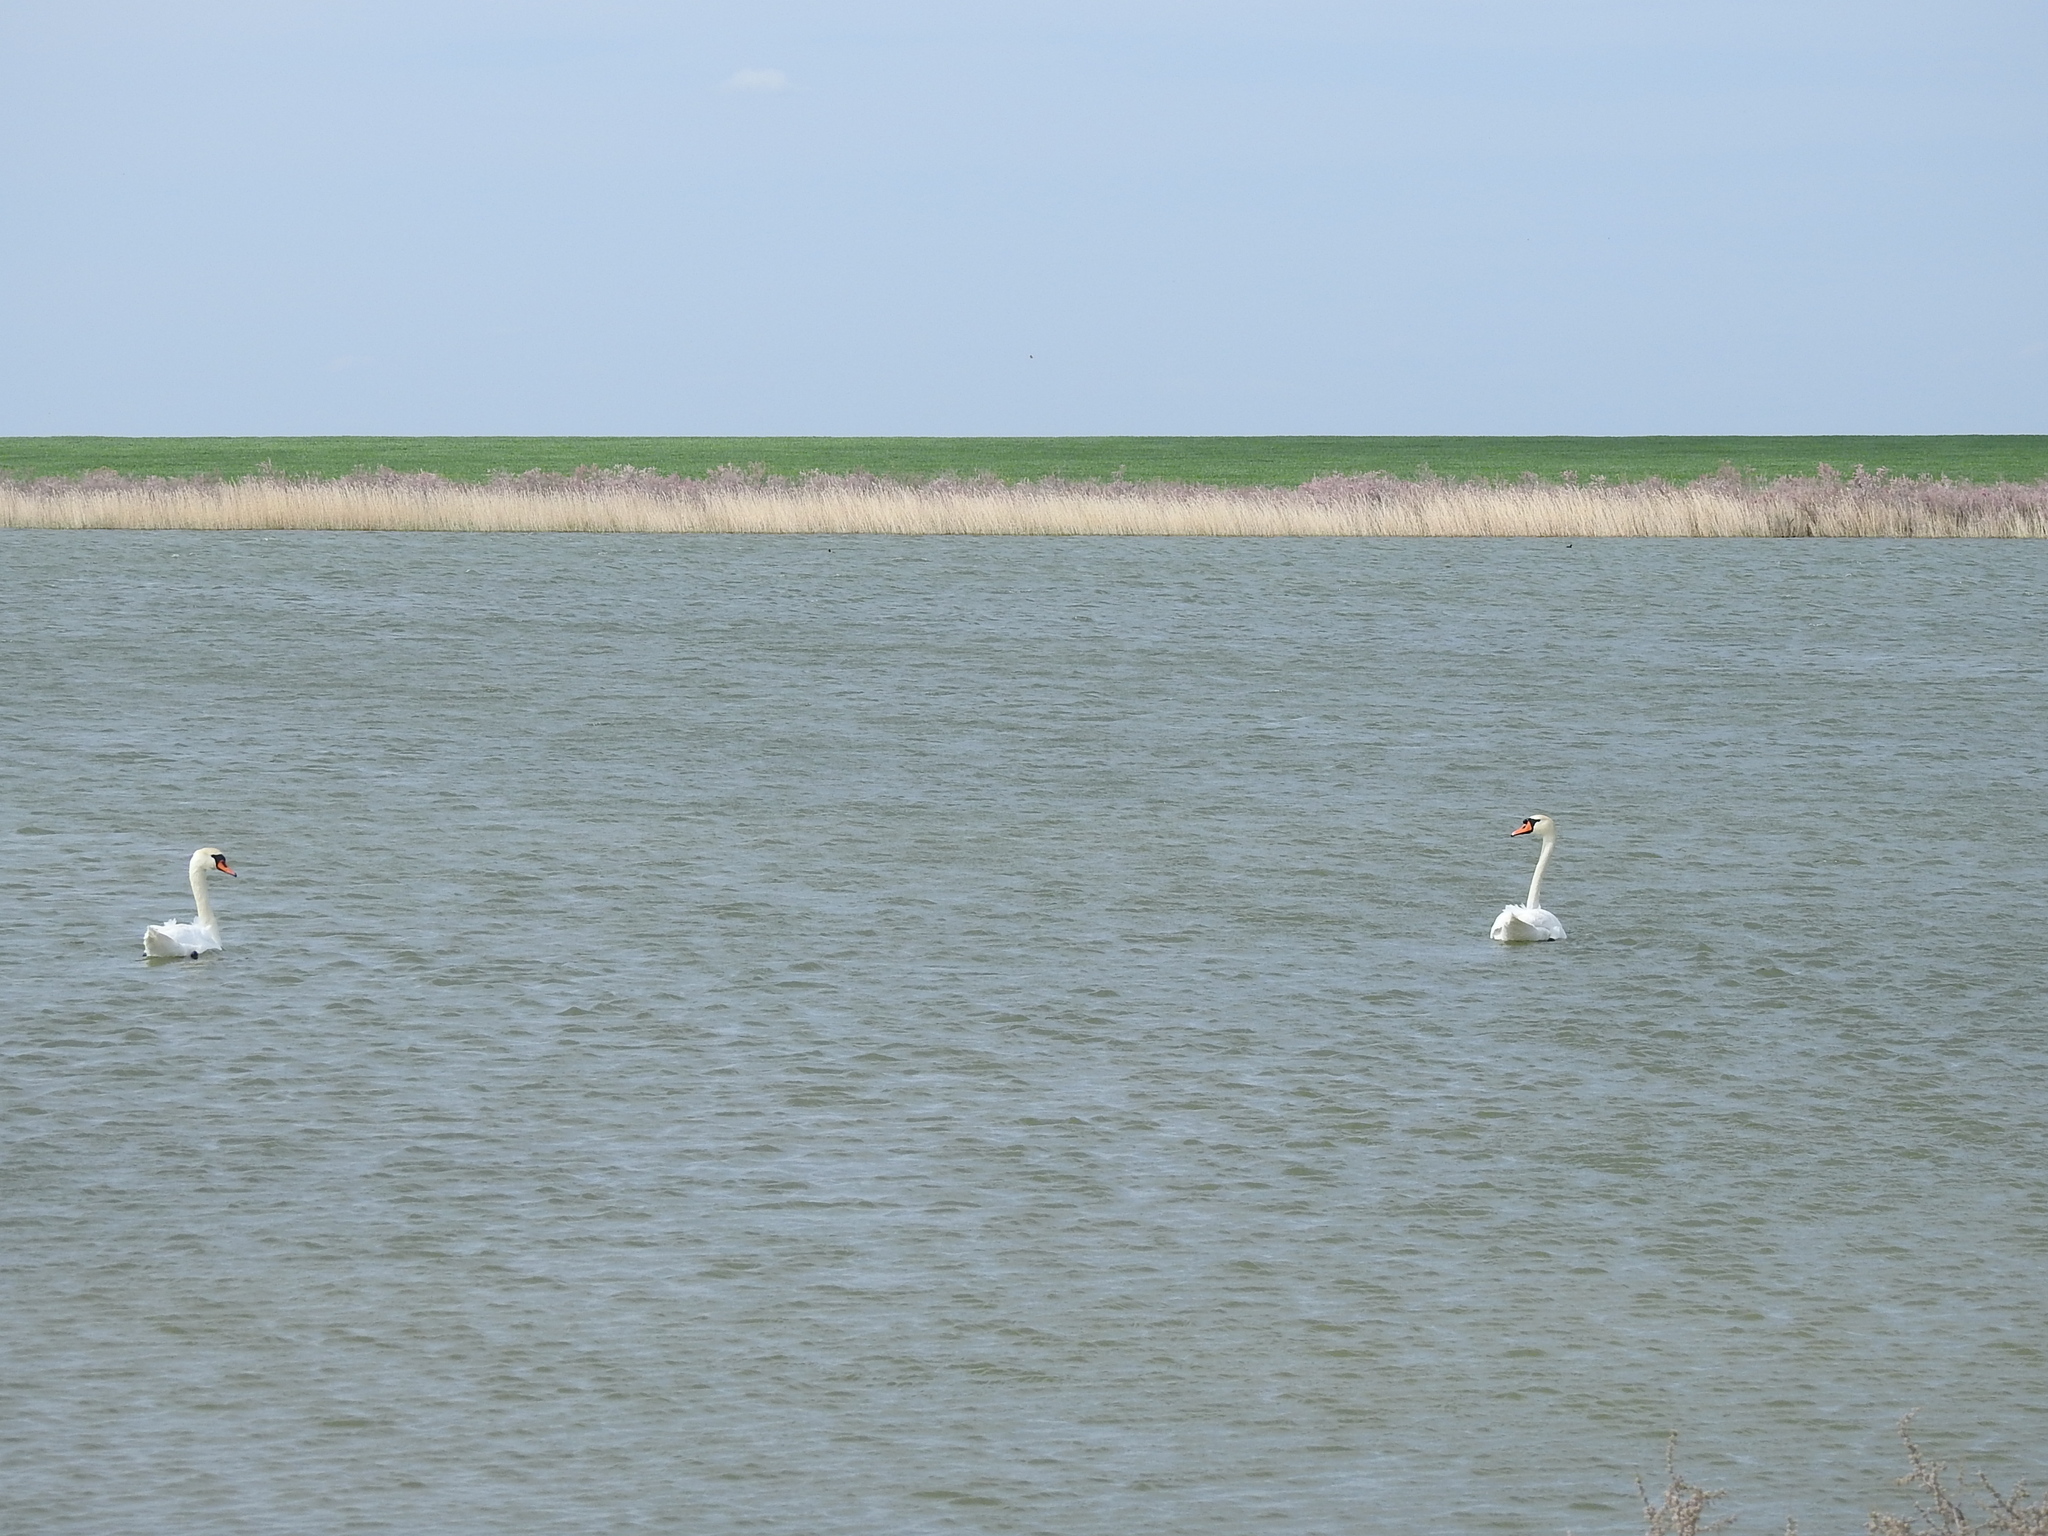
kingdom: Animalia
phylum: Chordata
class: Aves
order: Anseriformes
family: Anatidae
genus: Cygnus
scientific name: Cygnus olor
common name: Mute swan
